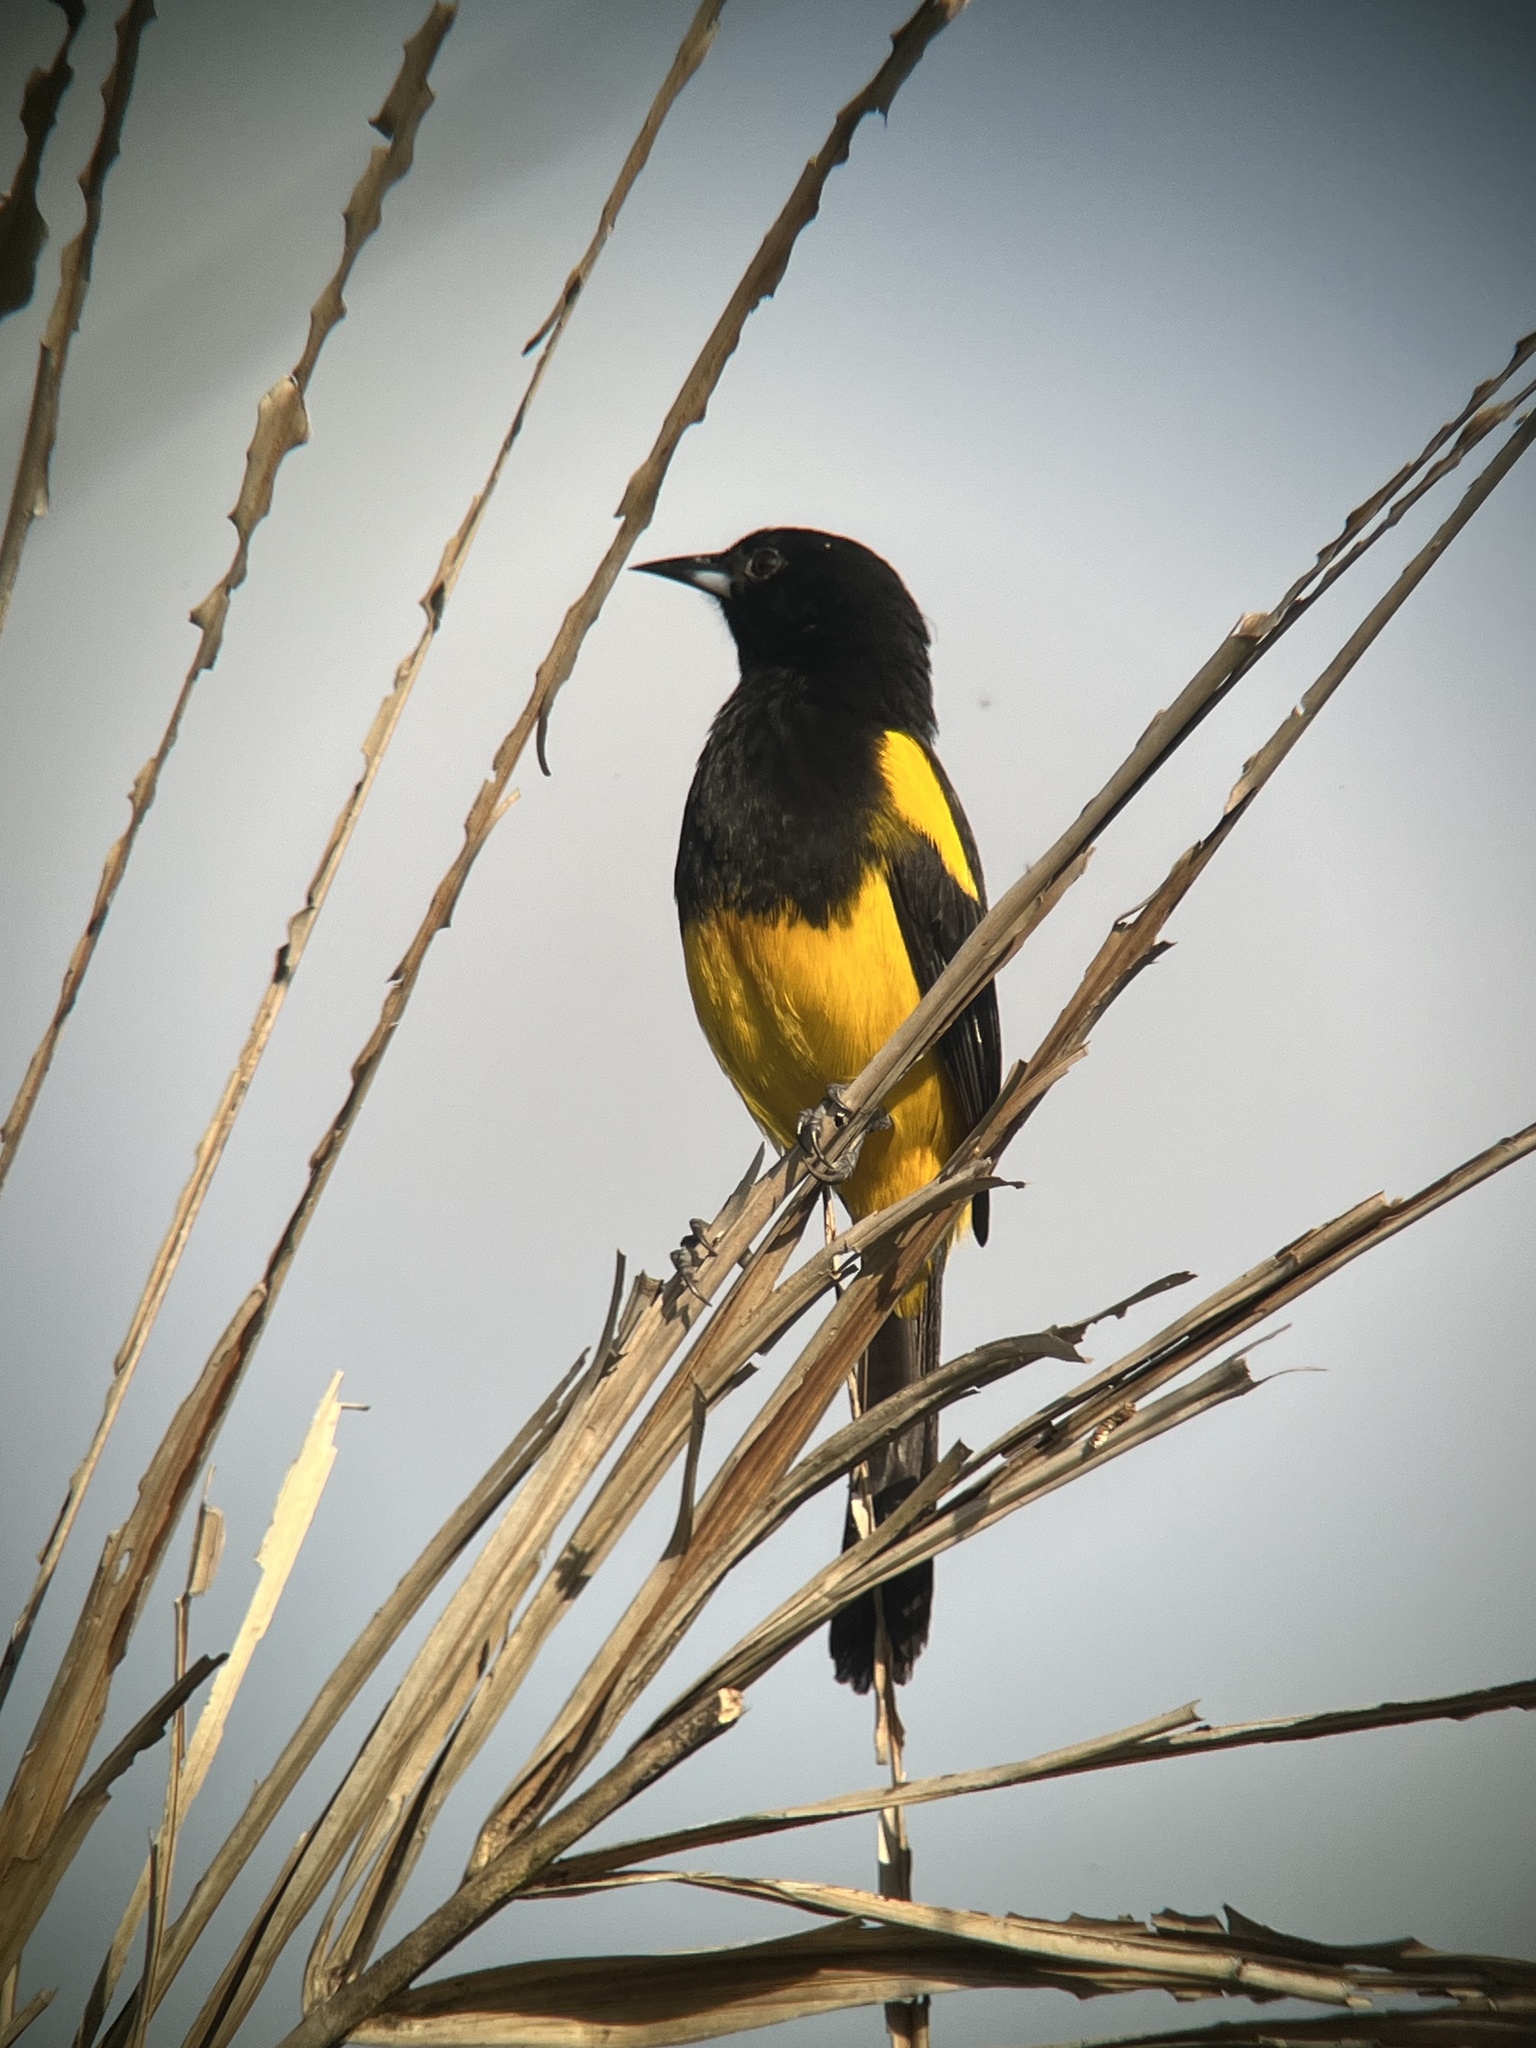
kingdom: Animalia
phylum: Chordata
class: Aves
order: Passeriformes
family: Icteridae
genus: Icterus
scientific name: Icterus prosthemelas
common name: Black-cowled oriole
